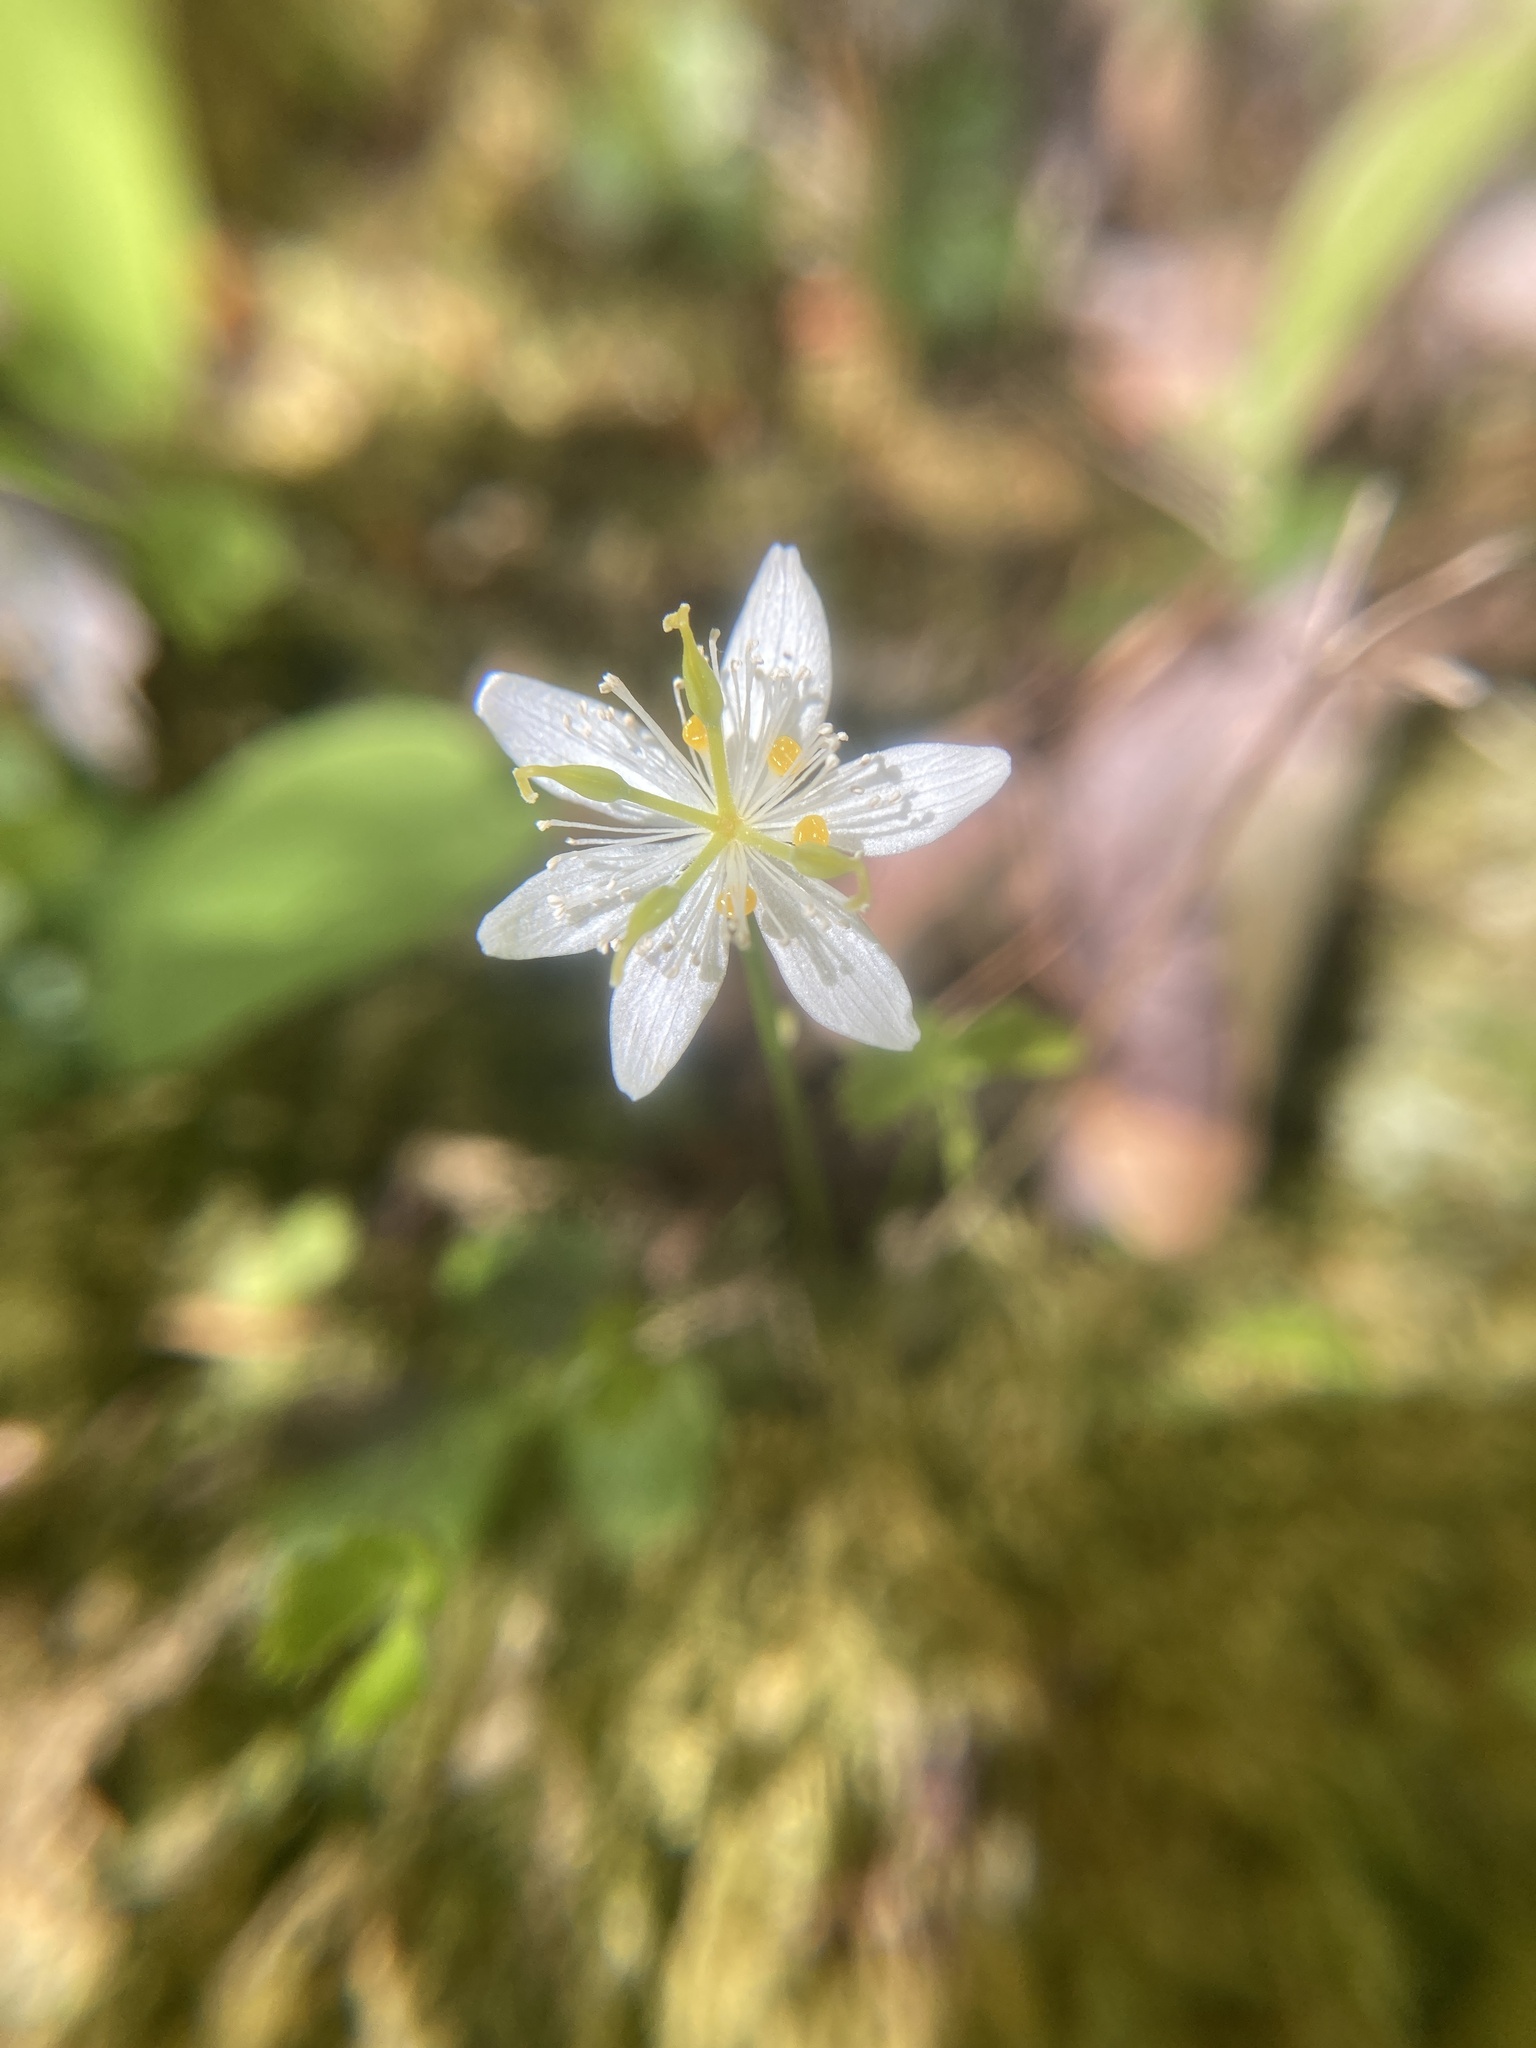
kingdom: Plantae
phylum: Tracheophyta
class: Magnoliopsida
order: Ranunculales
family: Ranunculaceae
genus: Coptis
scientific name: Coptis trifolia
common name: Canker-root
